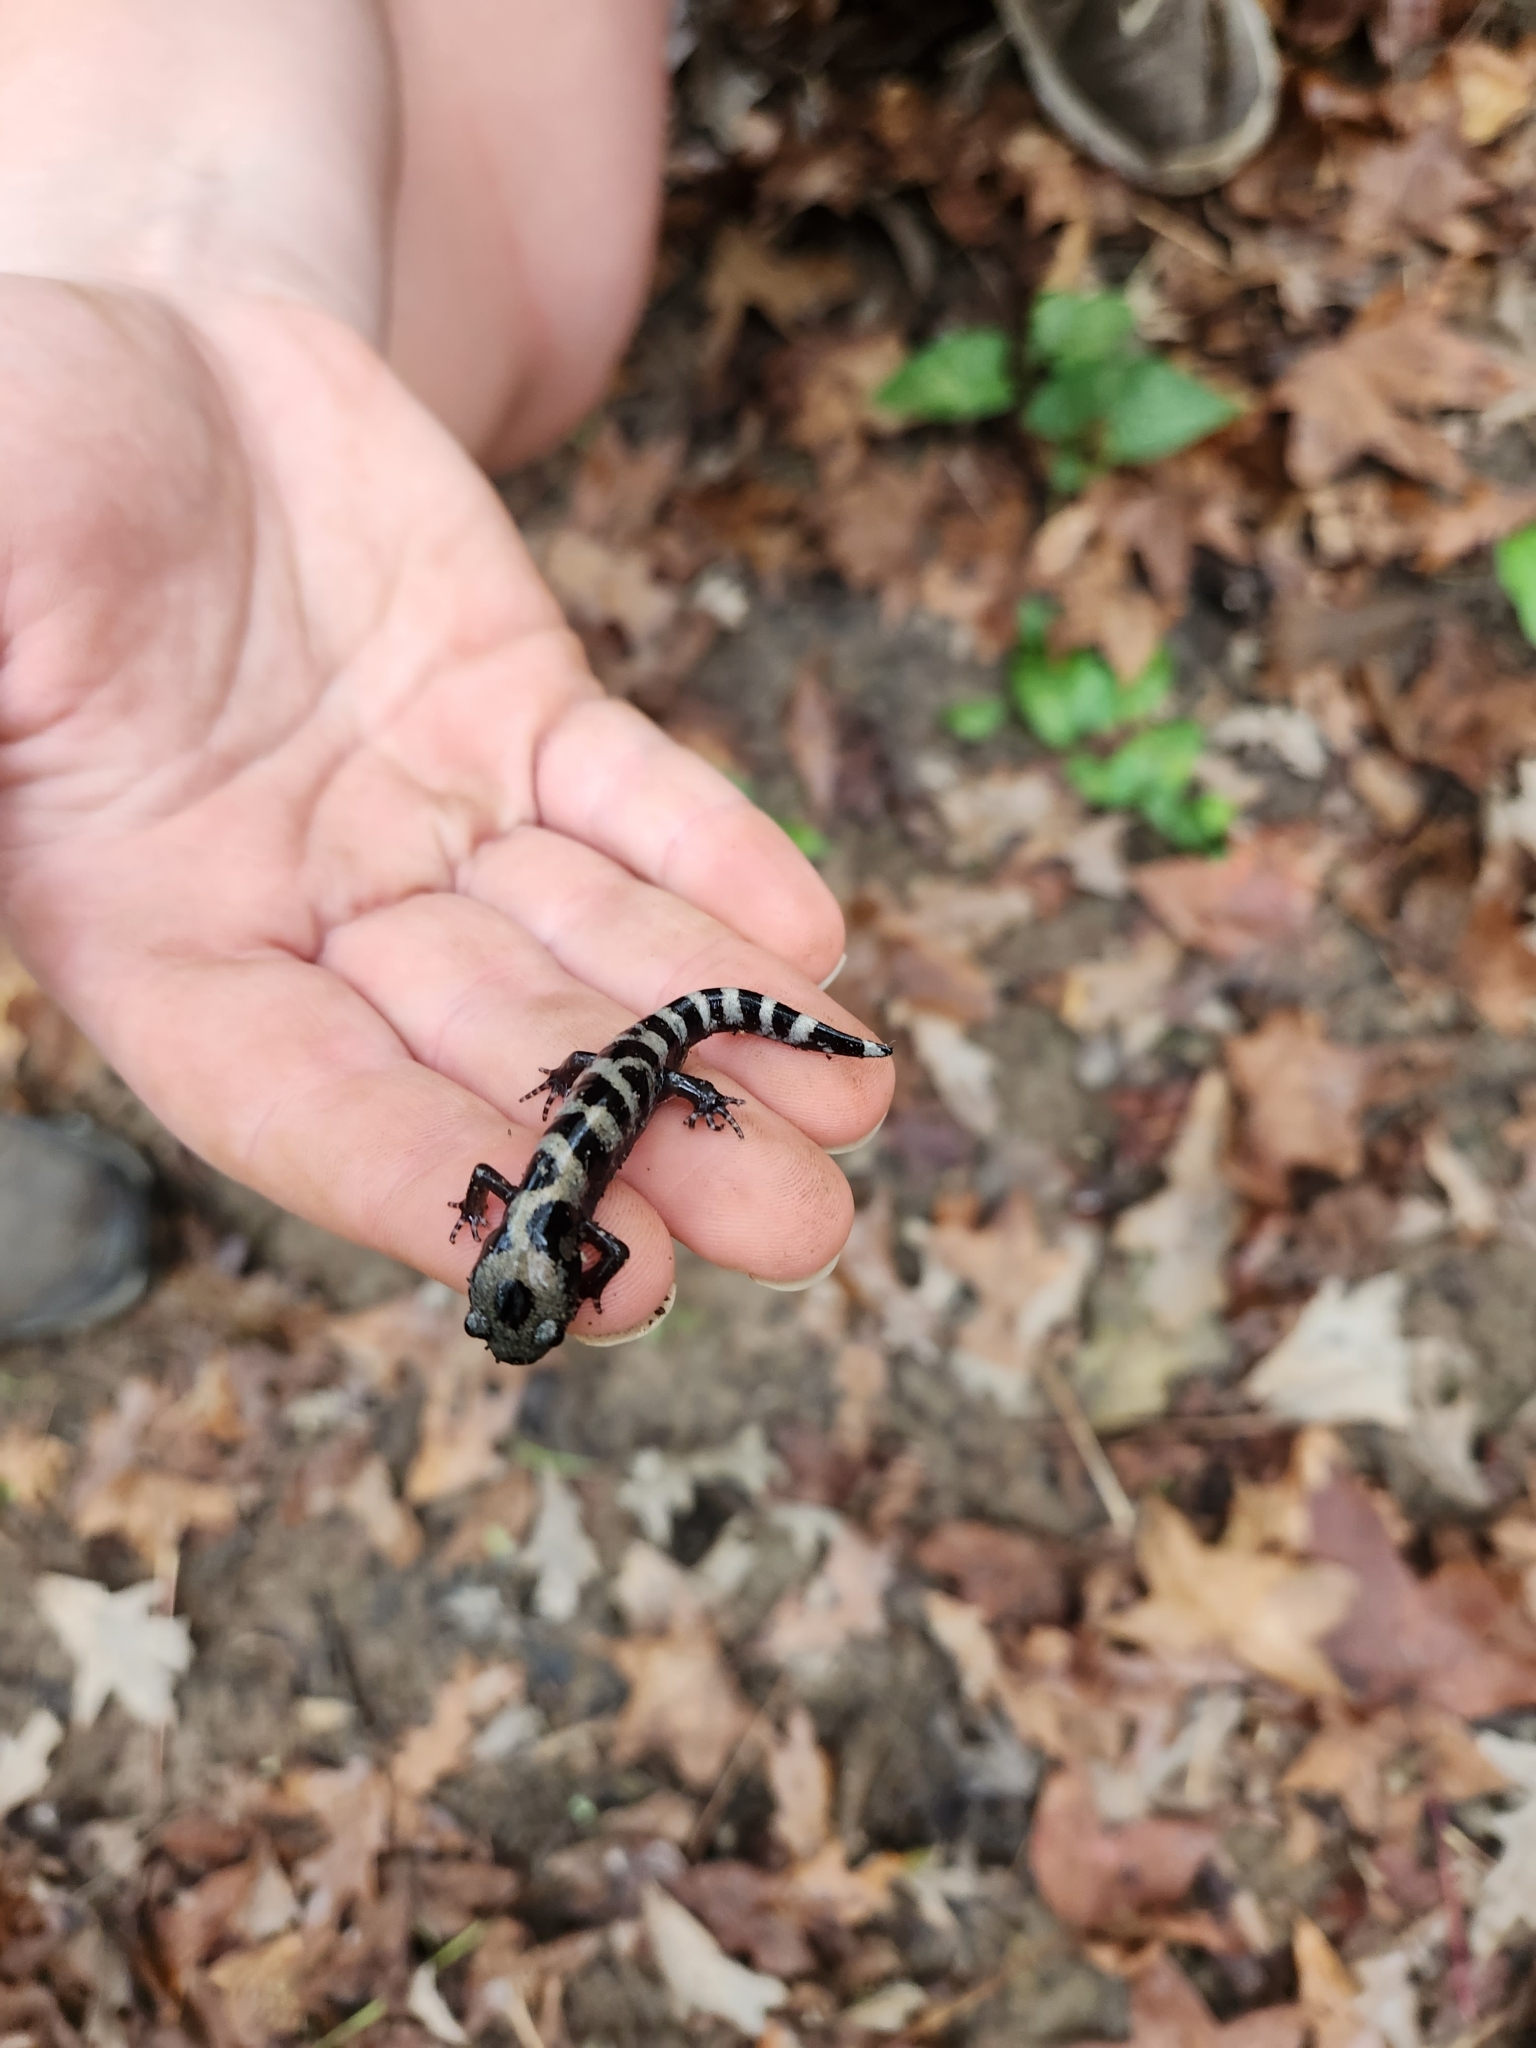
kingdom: Animalia
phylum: Chordata
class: Amphibia
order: Caudata
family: Ambystomatidae
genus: Ambystoma
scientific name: Ambystoma opacum
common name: Marbled salamander
